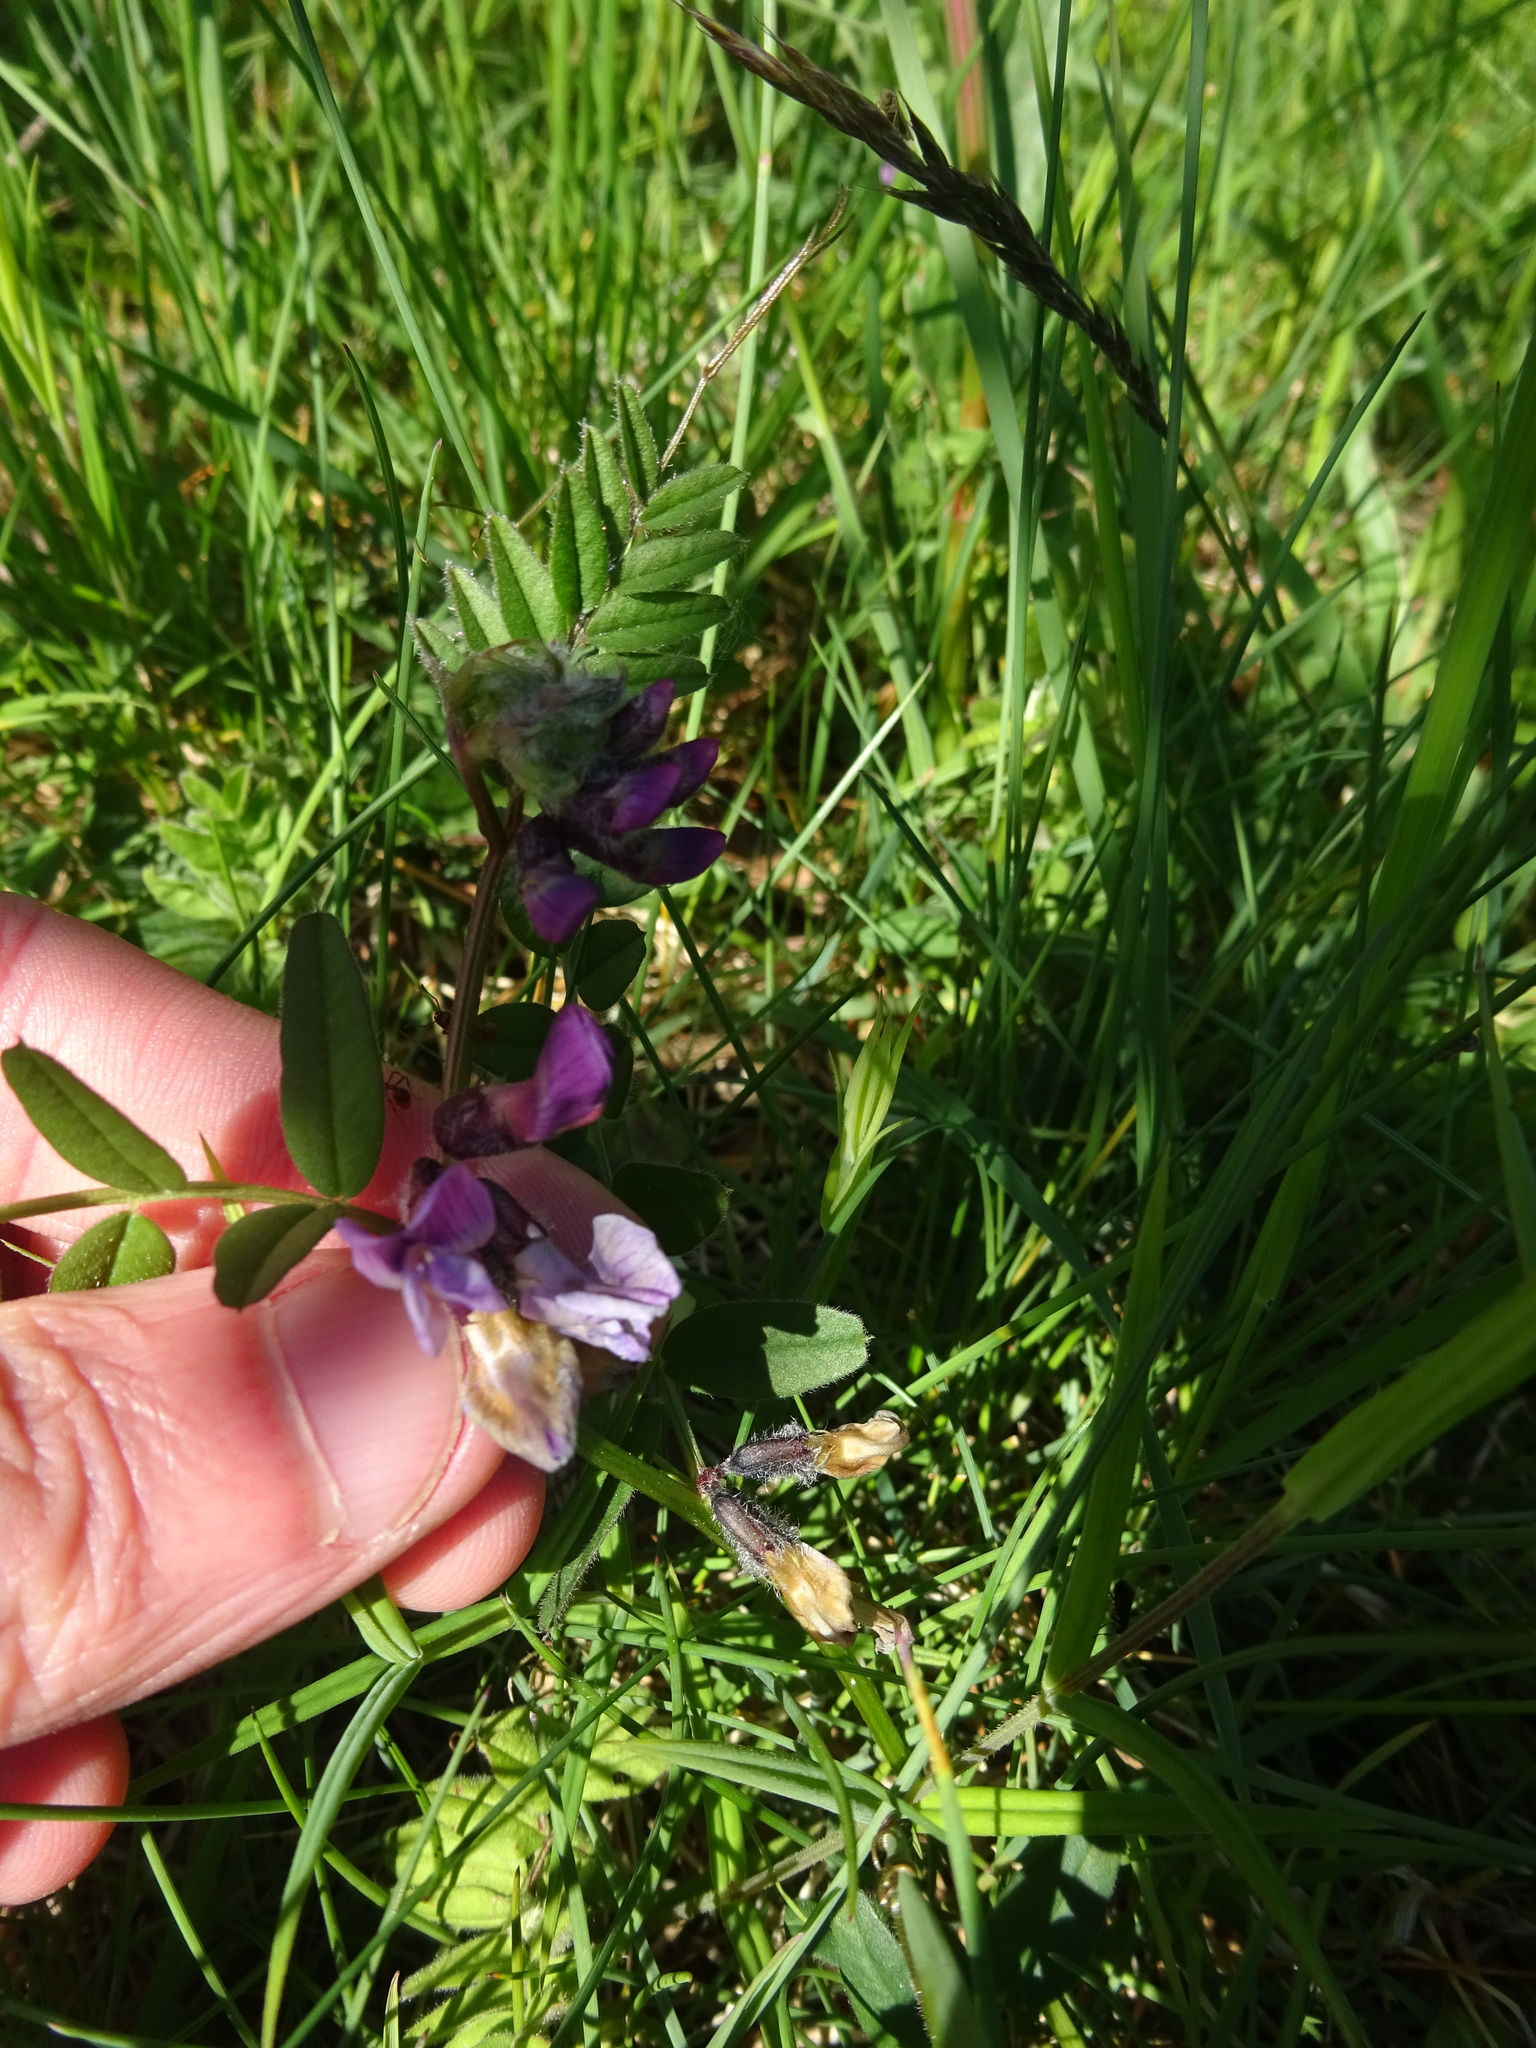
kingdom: Plantae
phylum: Tracheophyta
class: Magnoliopsida
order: Fabales
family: Fabaceae
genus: Vicia
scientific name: Vicia sepium
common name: Bush vetch
